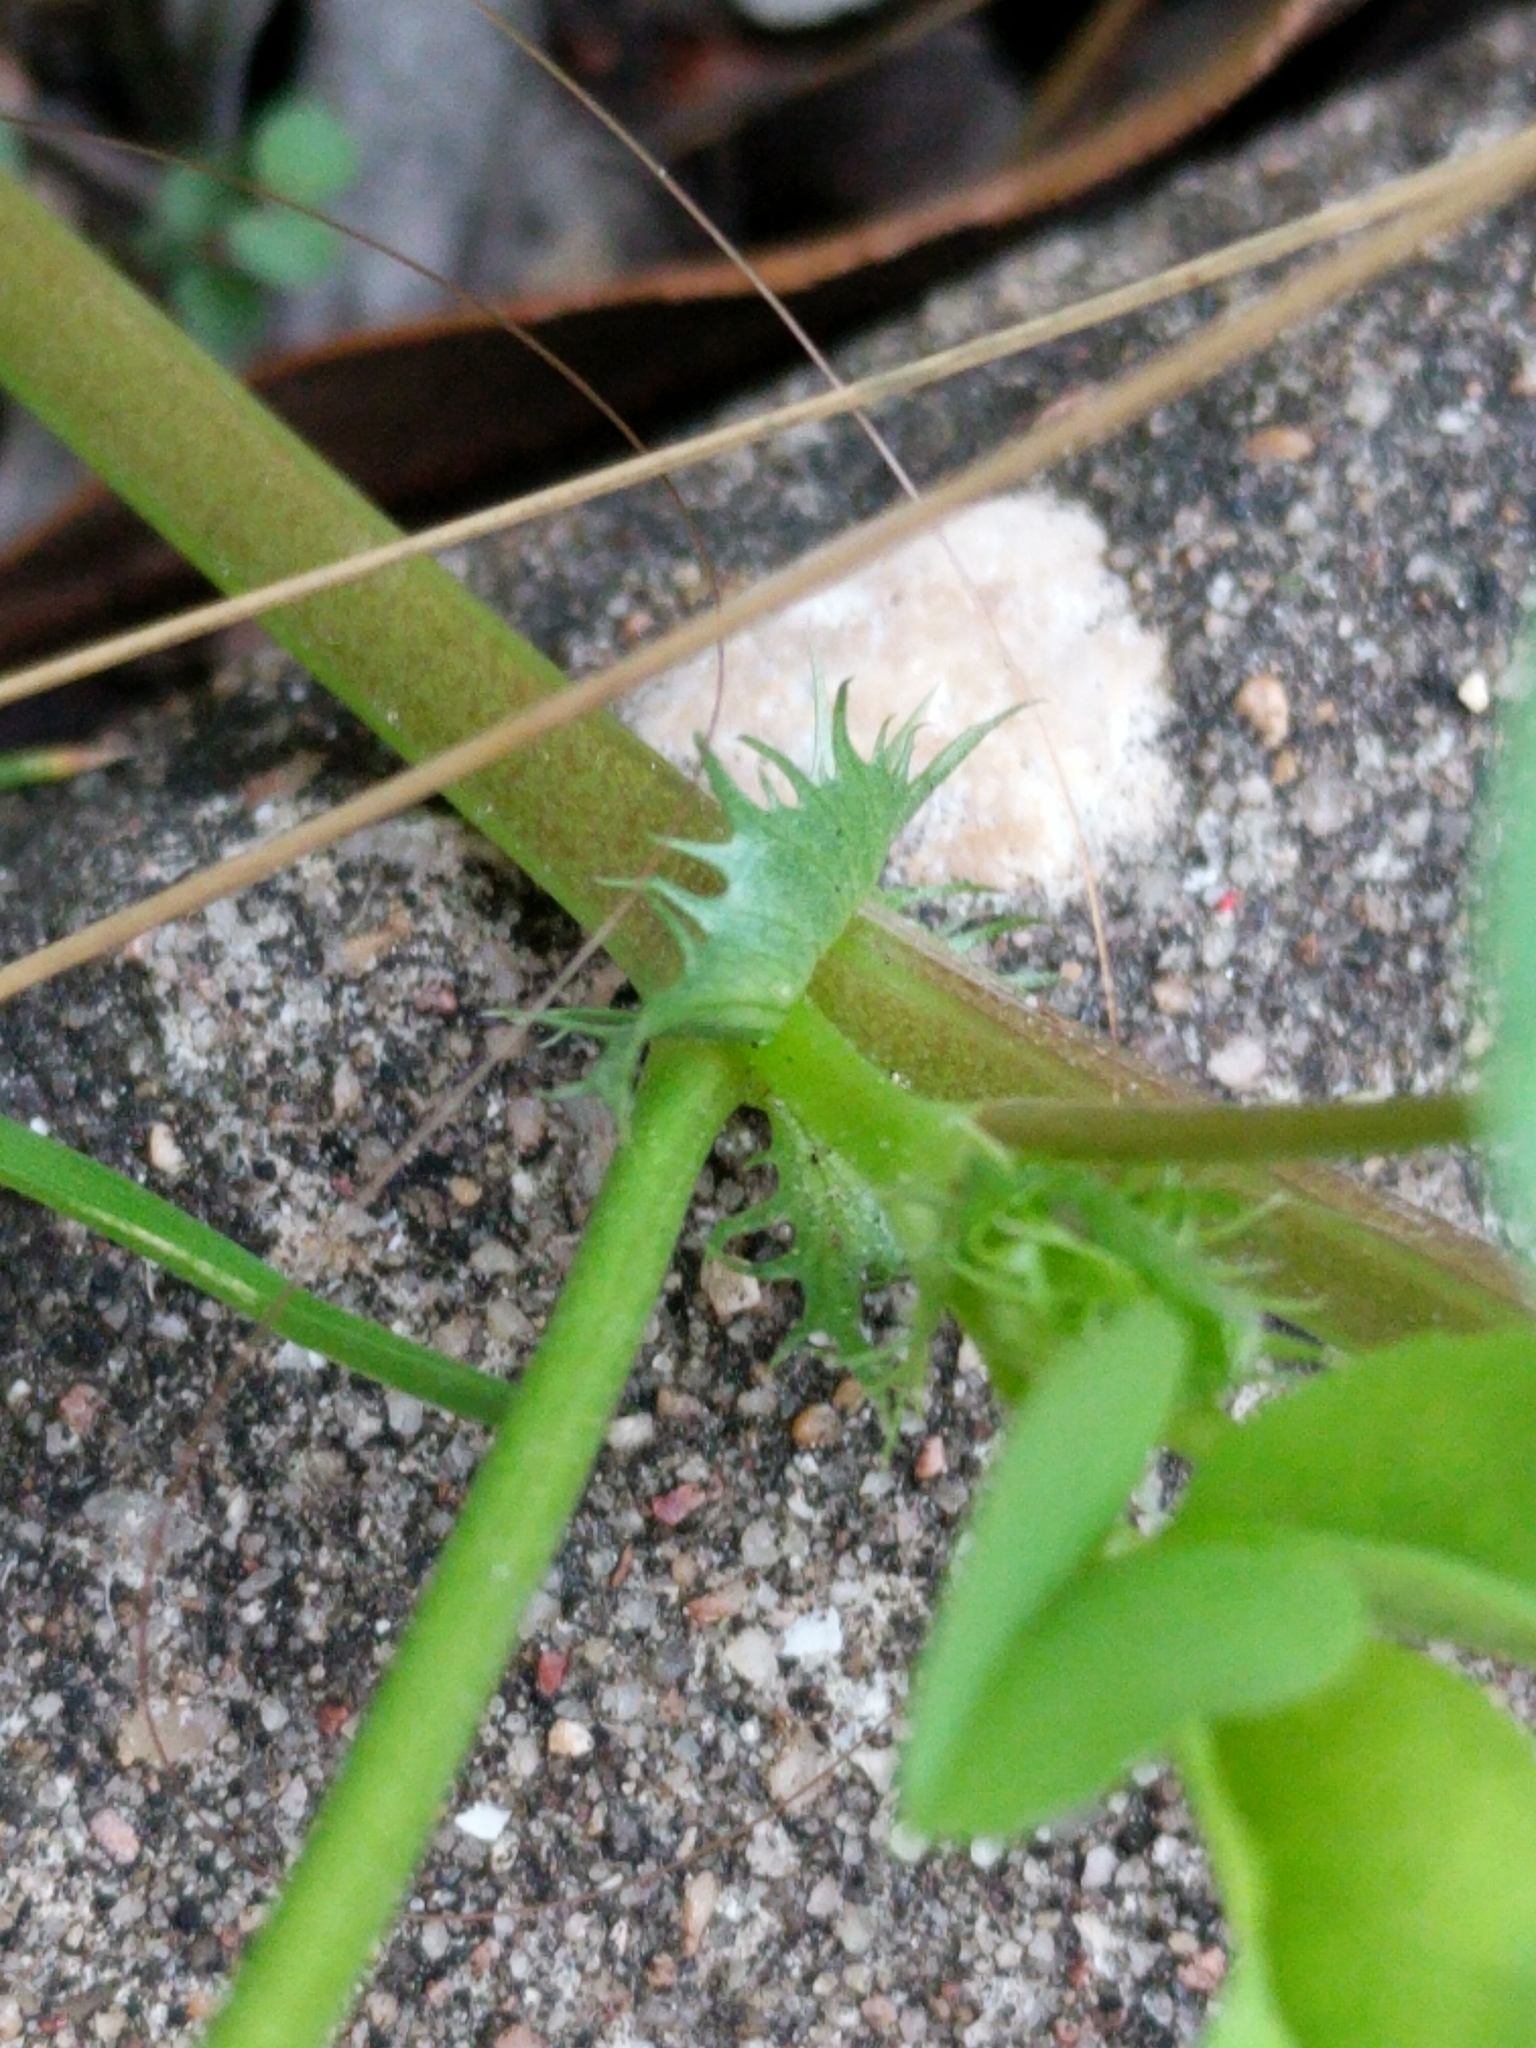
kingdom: Plantae
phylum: Tracheophyta
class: Magnoliopsida
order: Fabales
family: Fabaceae
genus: Medicago
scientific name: Medicago polymorpha
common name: Burclover
